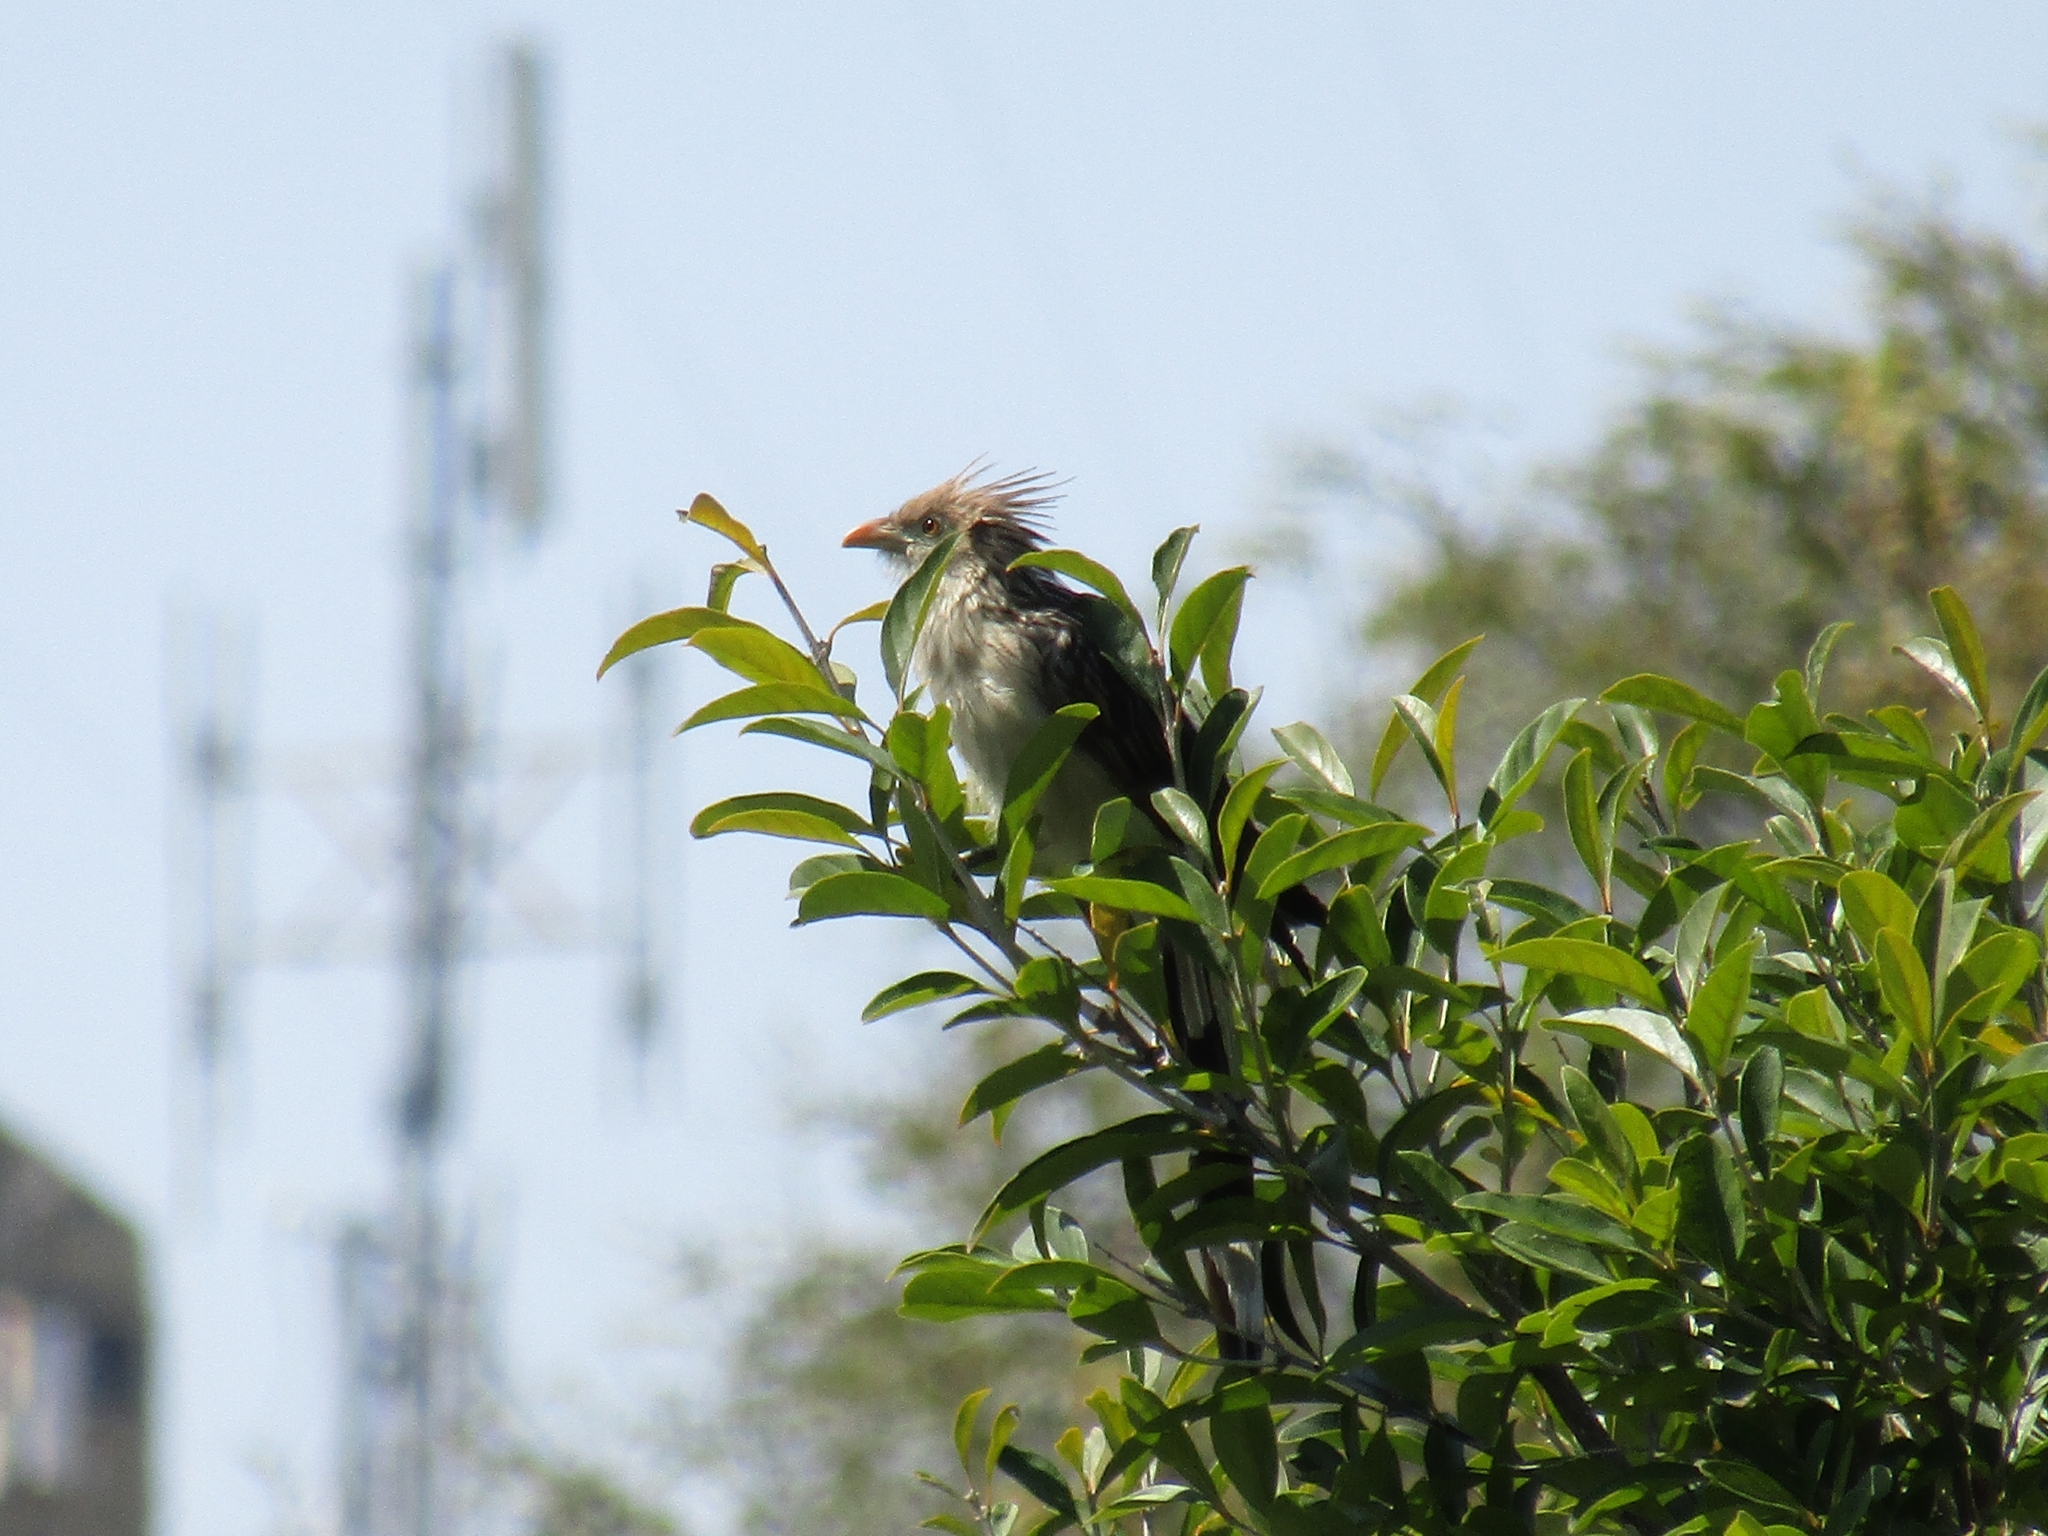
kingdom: Animalia
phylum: Chordata
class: Aves
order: Cuculiformes
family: Cuculidae
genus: Guira
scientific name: Guira guira
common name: Guira cuckoo
